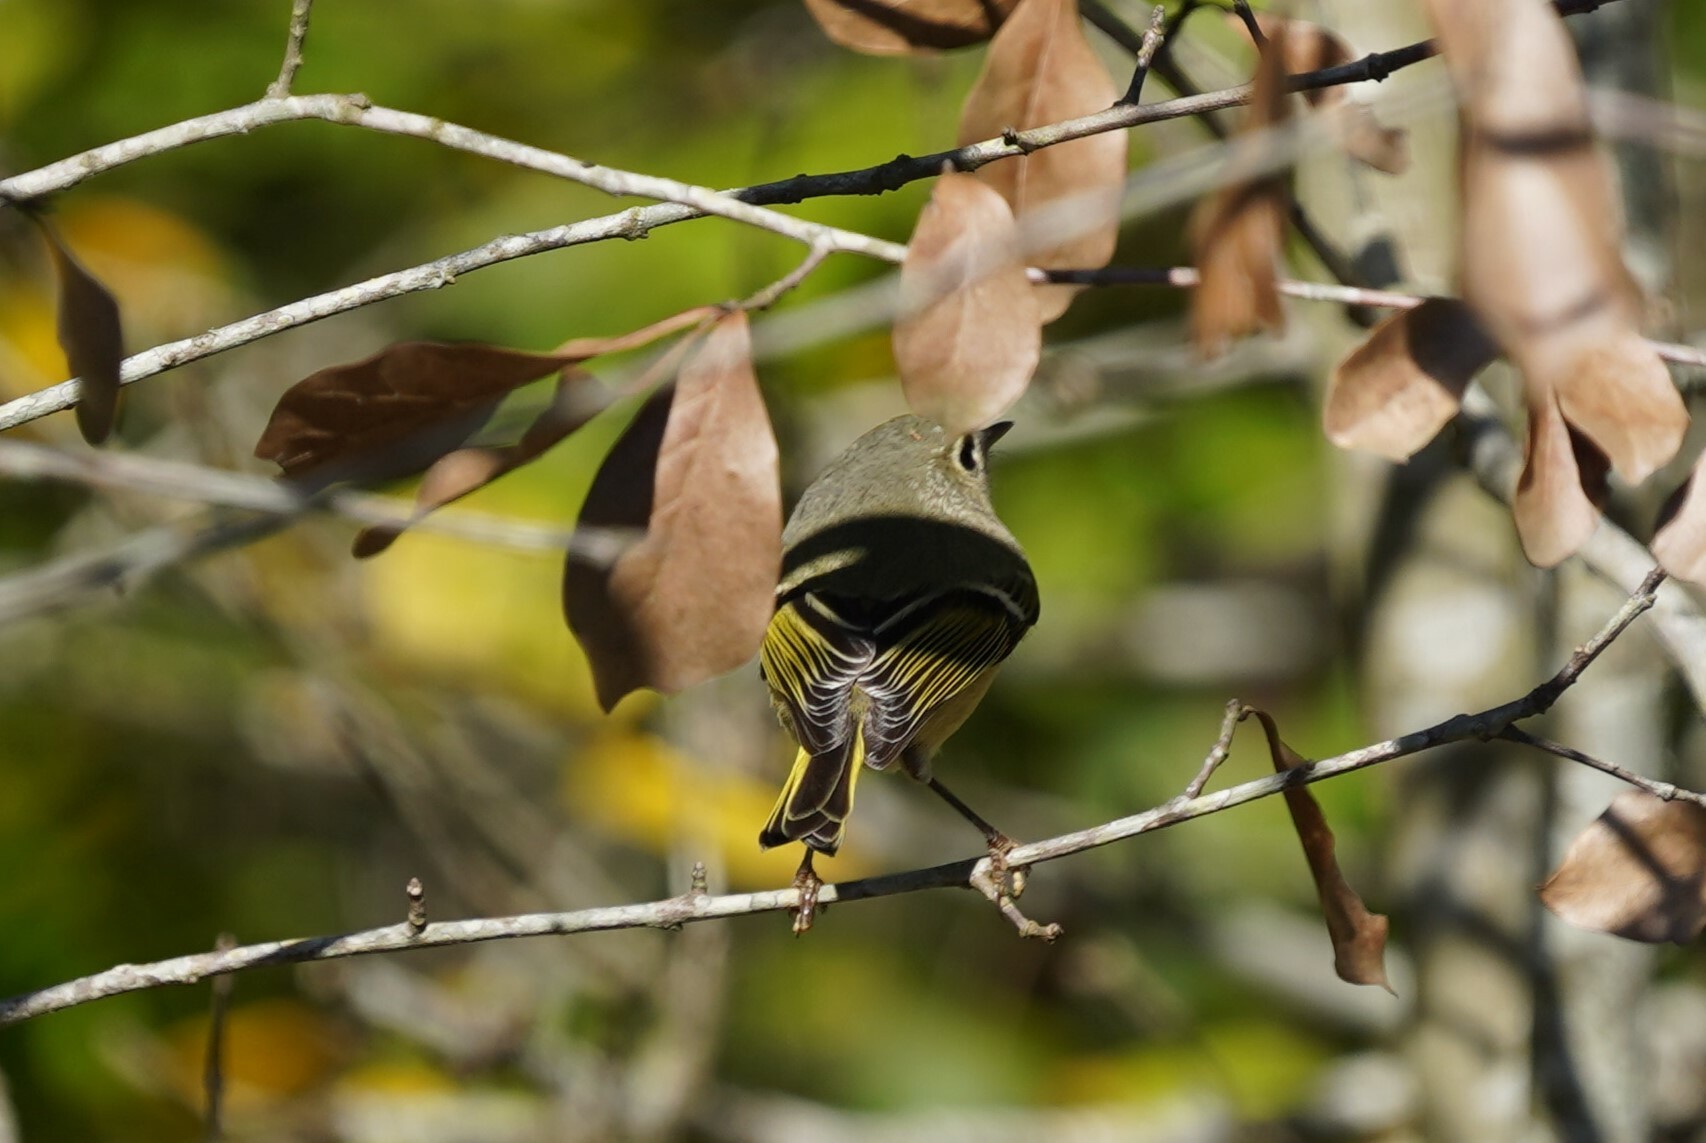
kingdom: Animalia
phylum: Chordata
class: Aves
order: Passeriformes
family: Regulidae
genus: Regulus
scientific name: Regulus calendula
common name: Ruby-crowned kinglet
